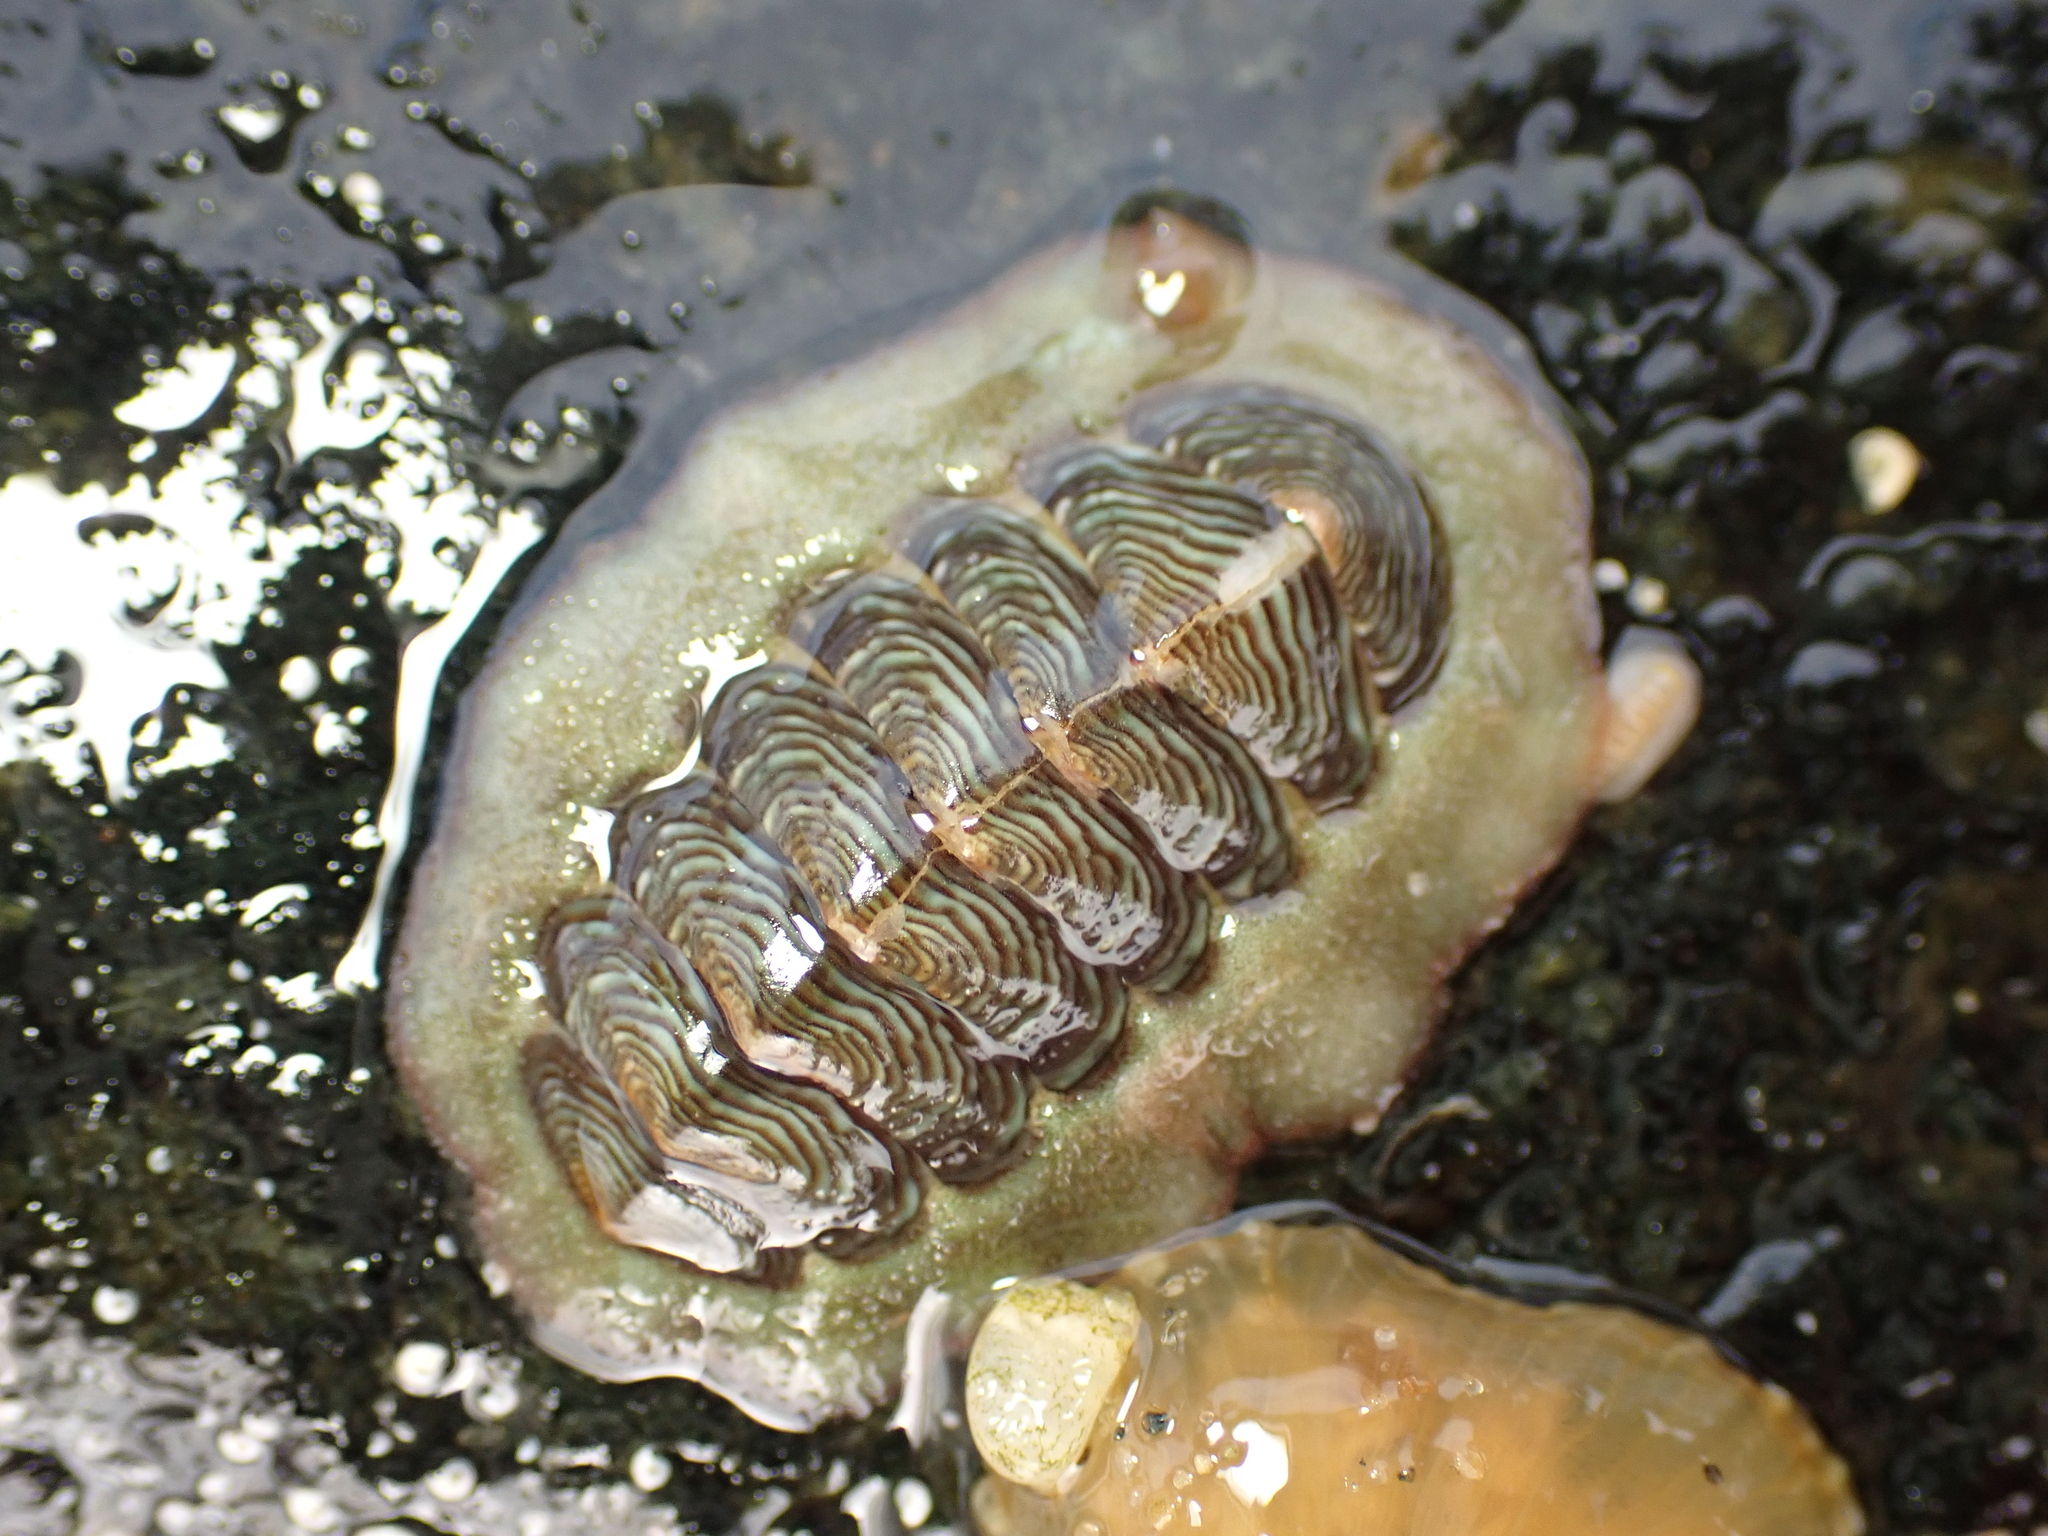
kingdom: Animalia
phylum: Mollusca
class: Polyplacophora
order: Chitonida
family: Chitonidae
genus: Onithochiton
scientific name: Onithochiton neglectus
